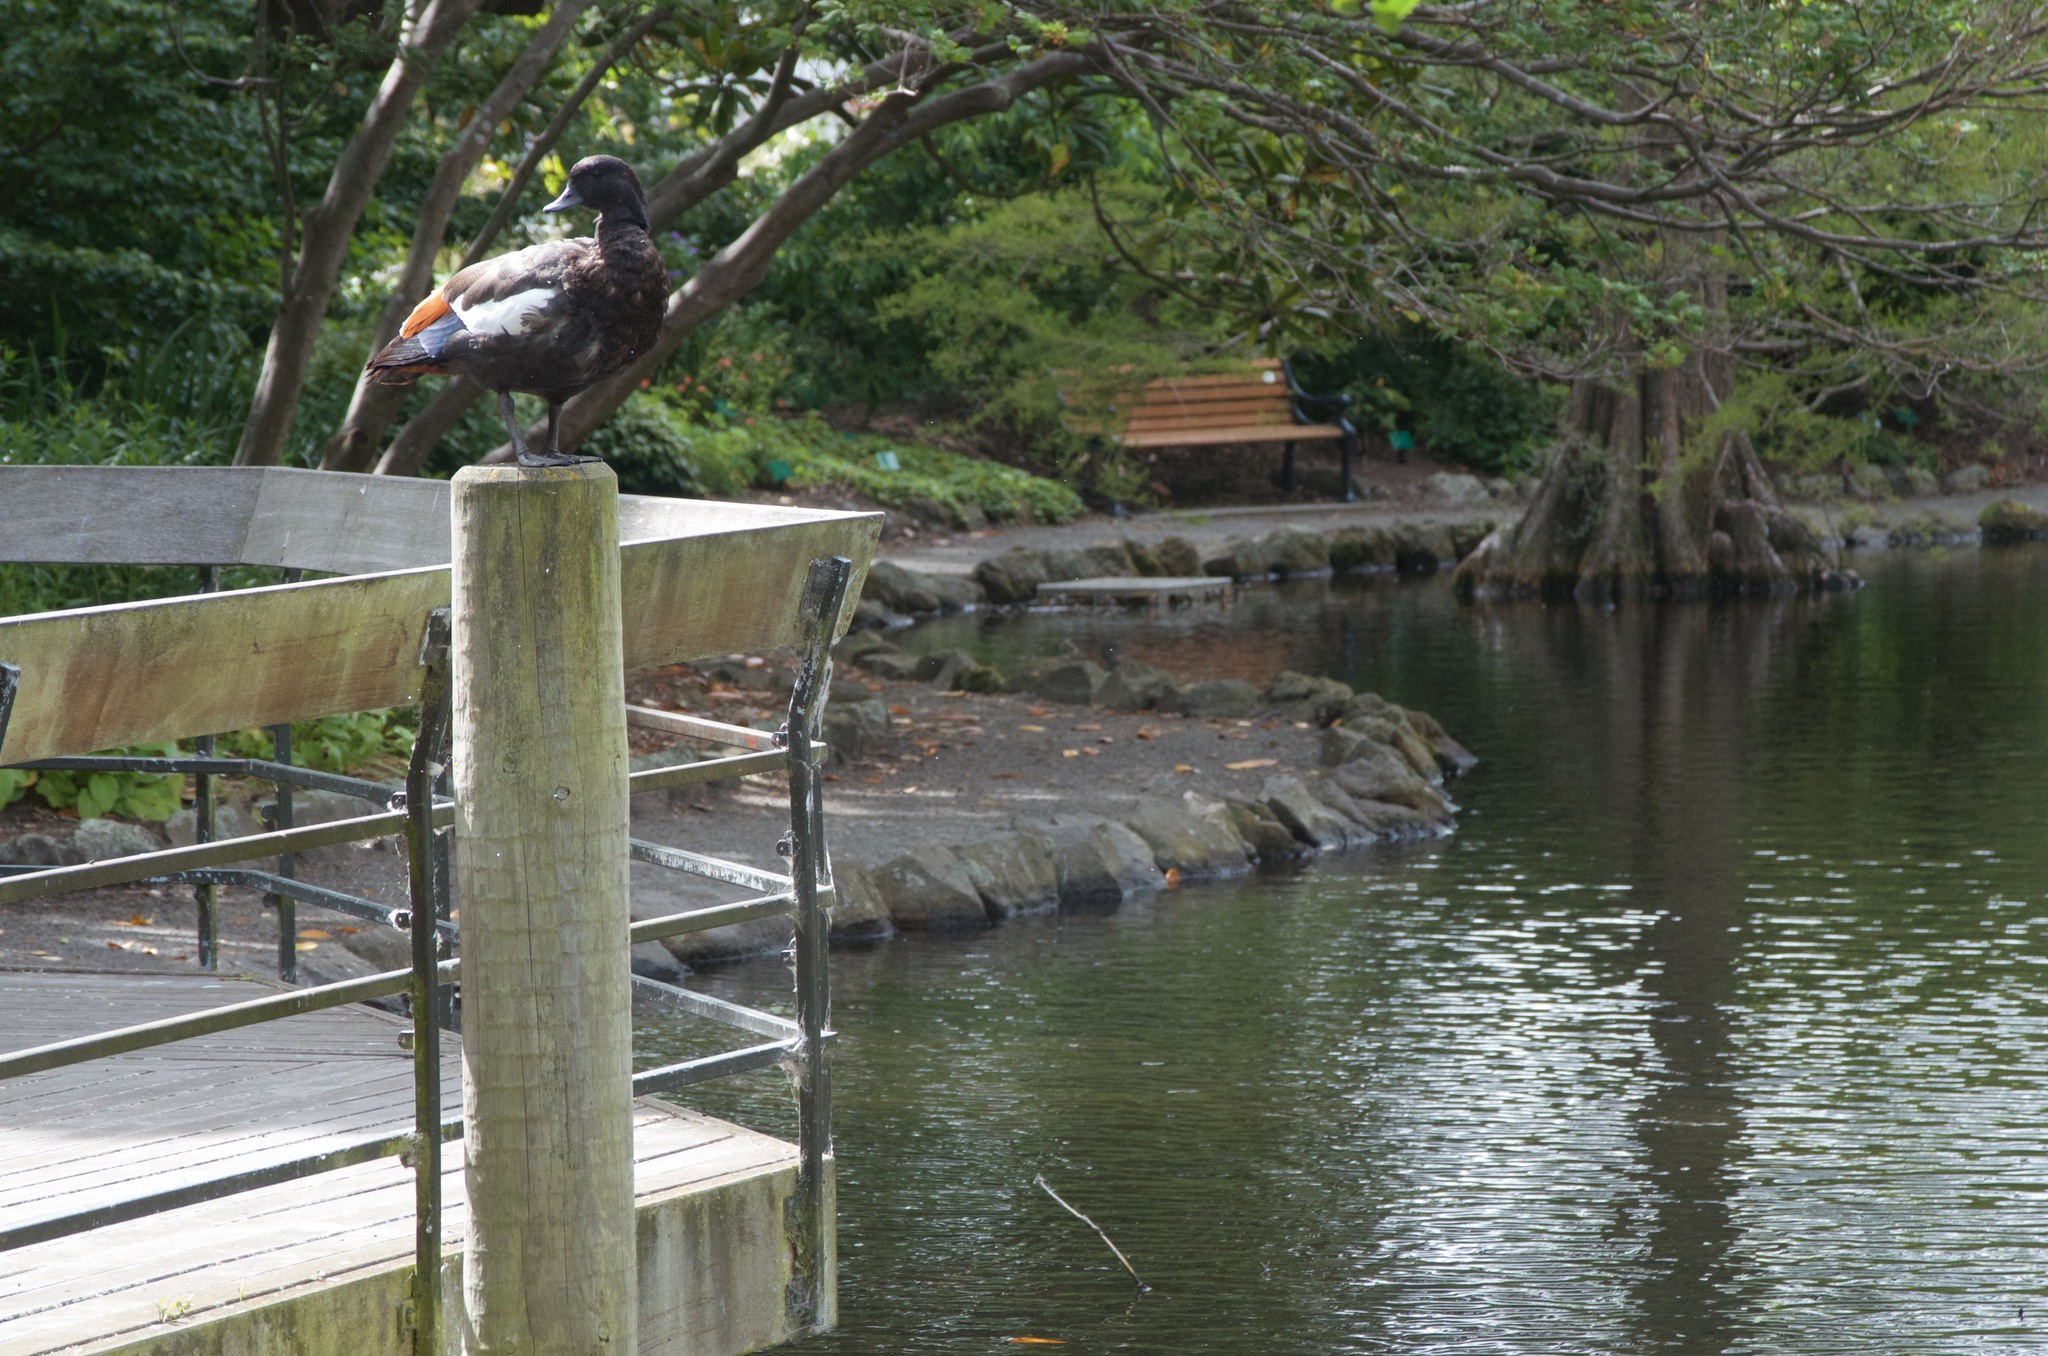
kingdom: Animalia
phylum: Chordata
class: Aves
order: Anseriformes
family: Anatidae
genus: Tadorna
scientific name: Tadorna variegata
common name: Paradise shelduck
